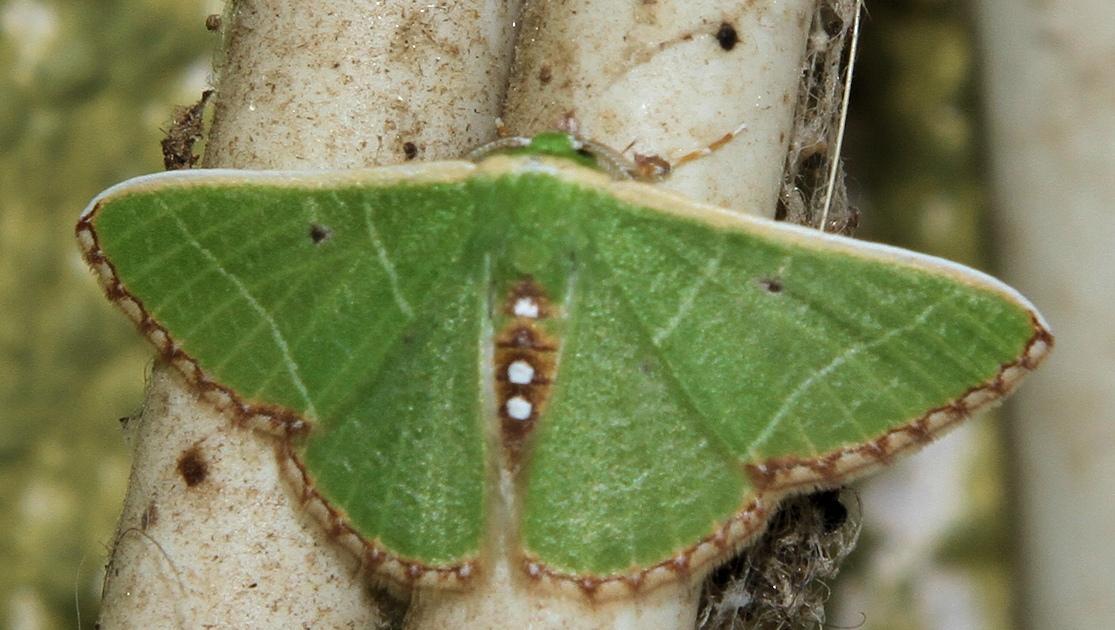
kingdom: Animalia
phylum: Arthropoda
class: Insecta
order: Lepidoptera
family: Geometridae
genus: Comibaena
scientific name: Comibaena leucospilata
